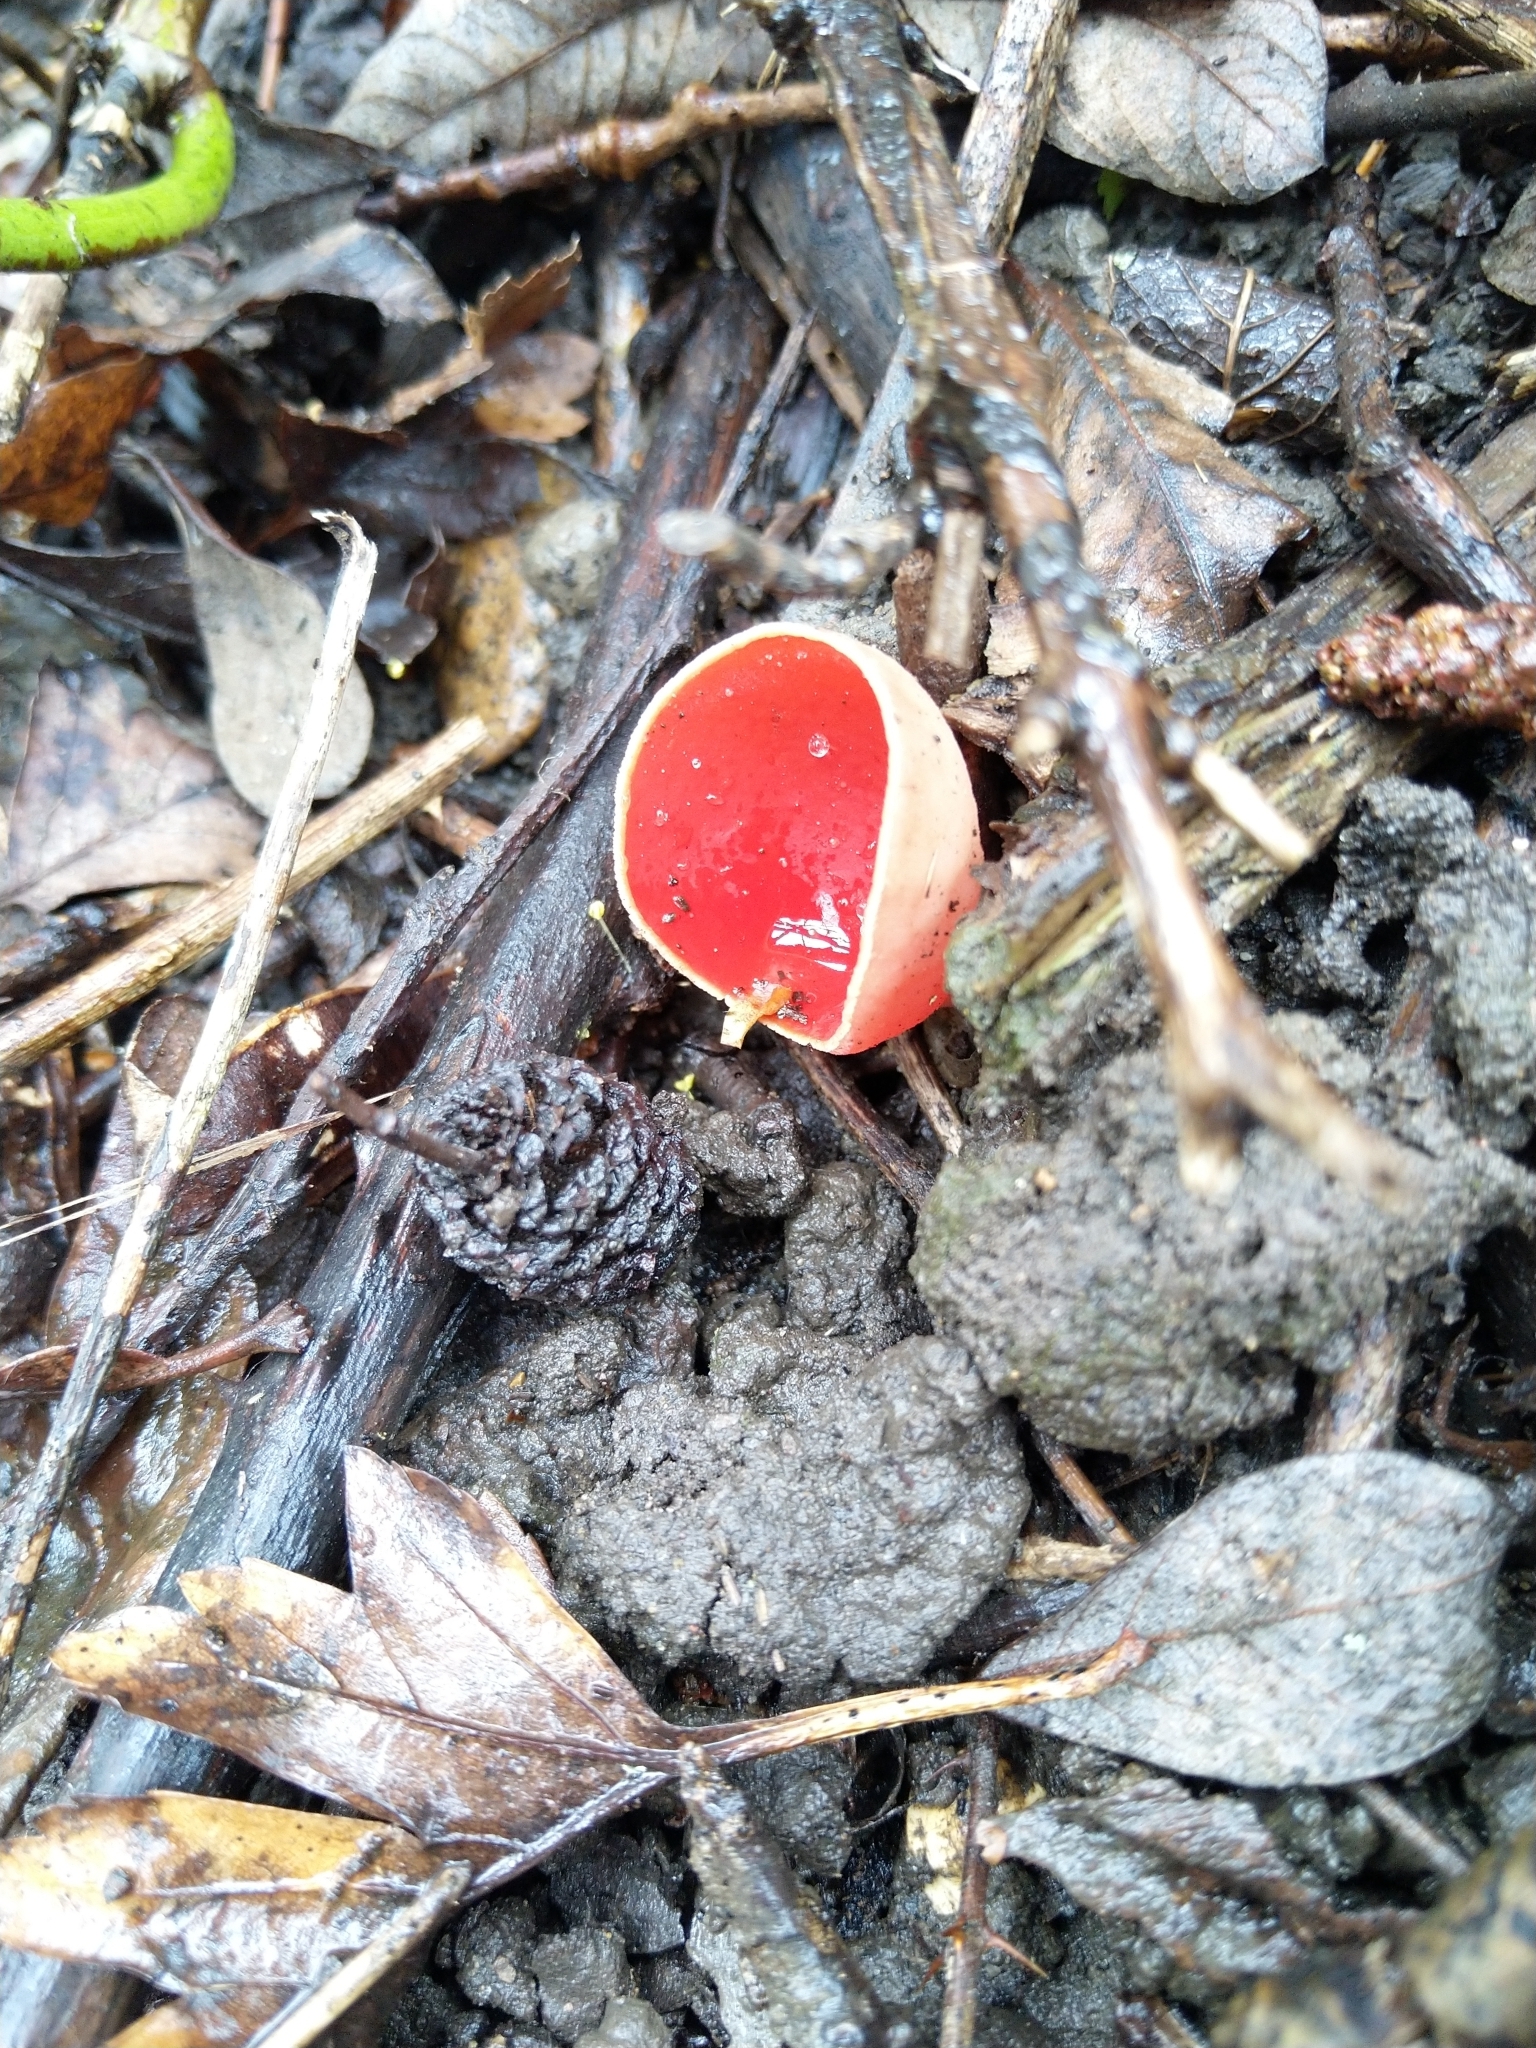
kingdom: Fungi
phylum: Ascomycota
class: Pezizomycetes
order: Pezizales
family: Sarcoscyphaceae
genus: Sarcoscypha
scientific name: Sarcoscypha
